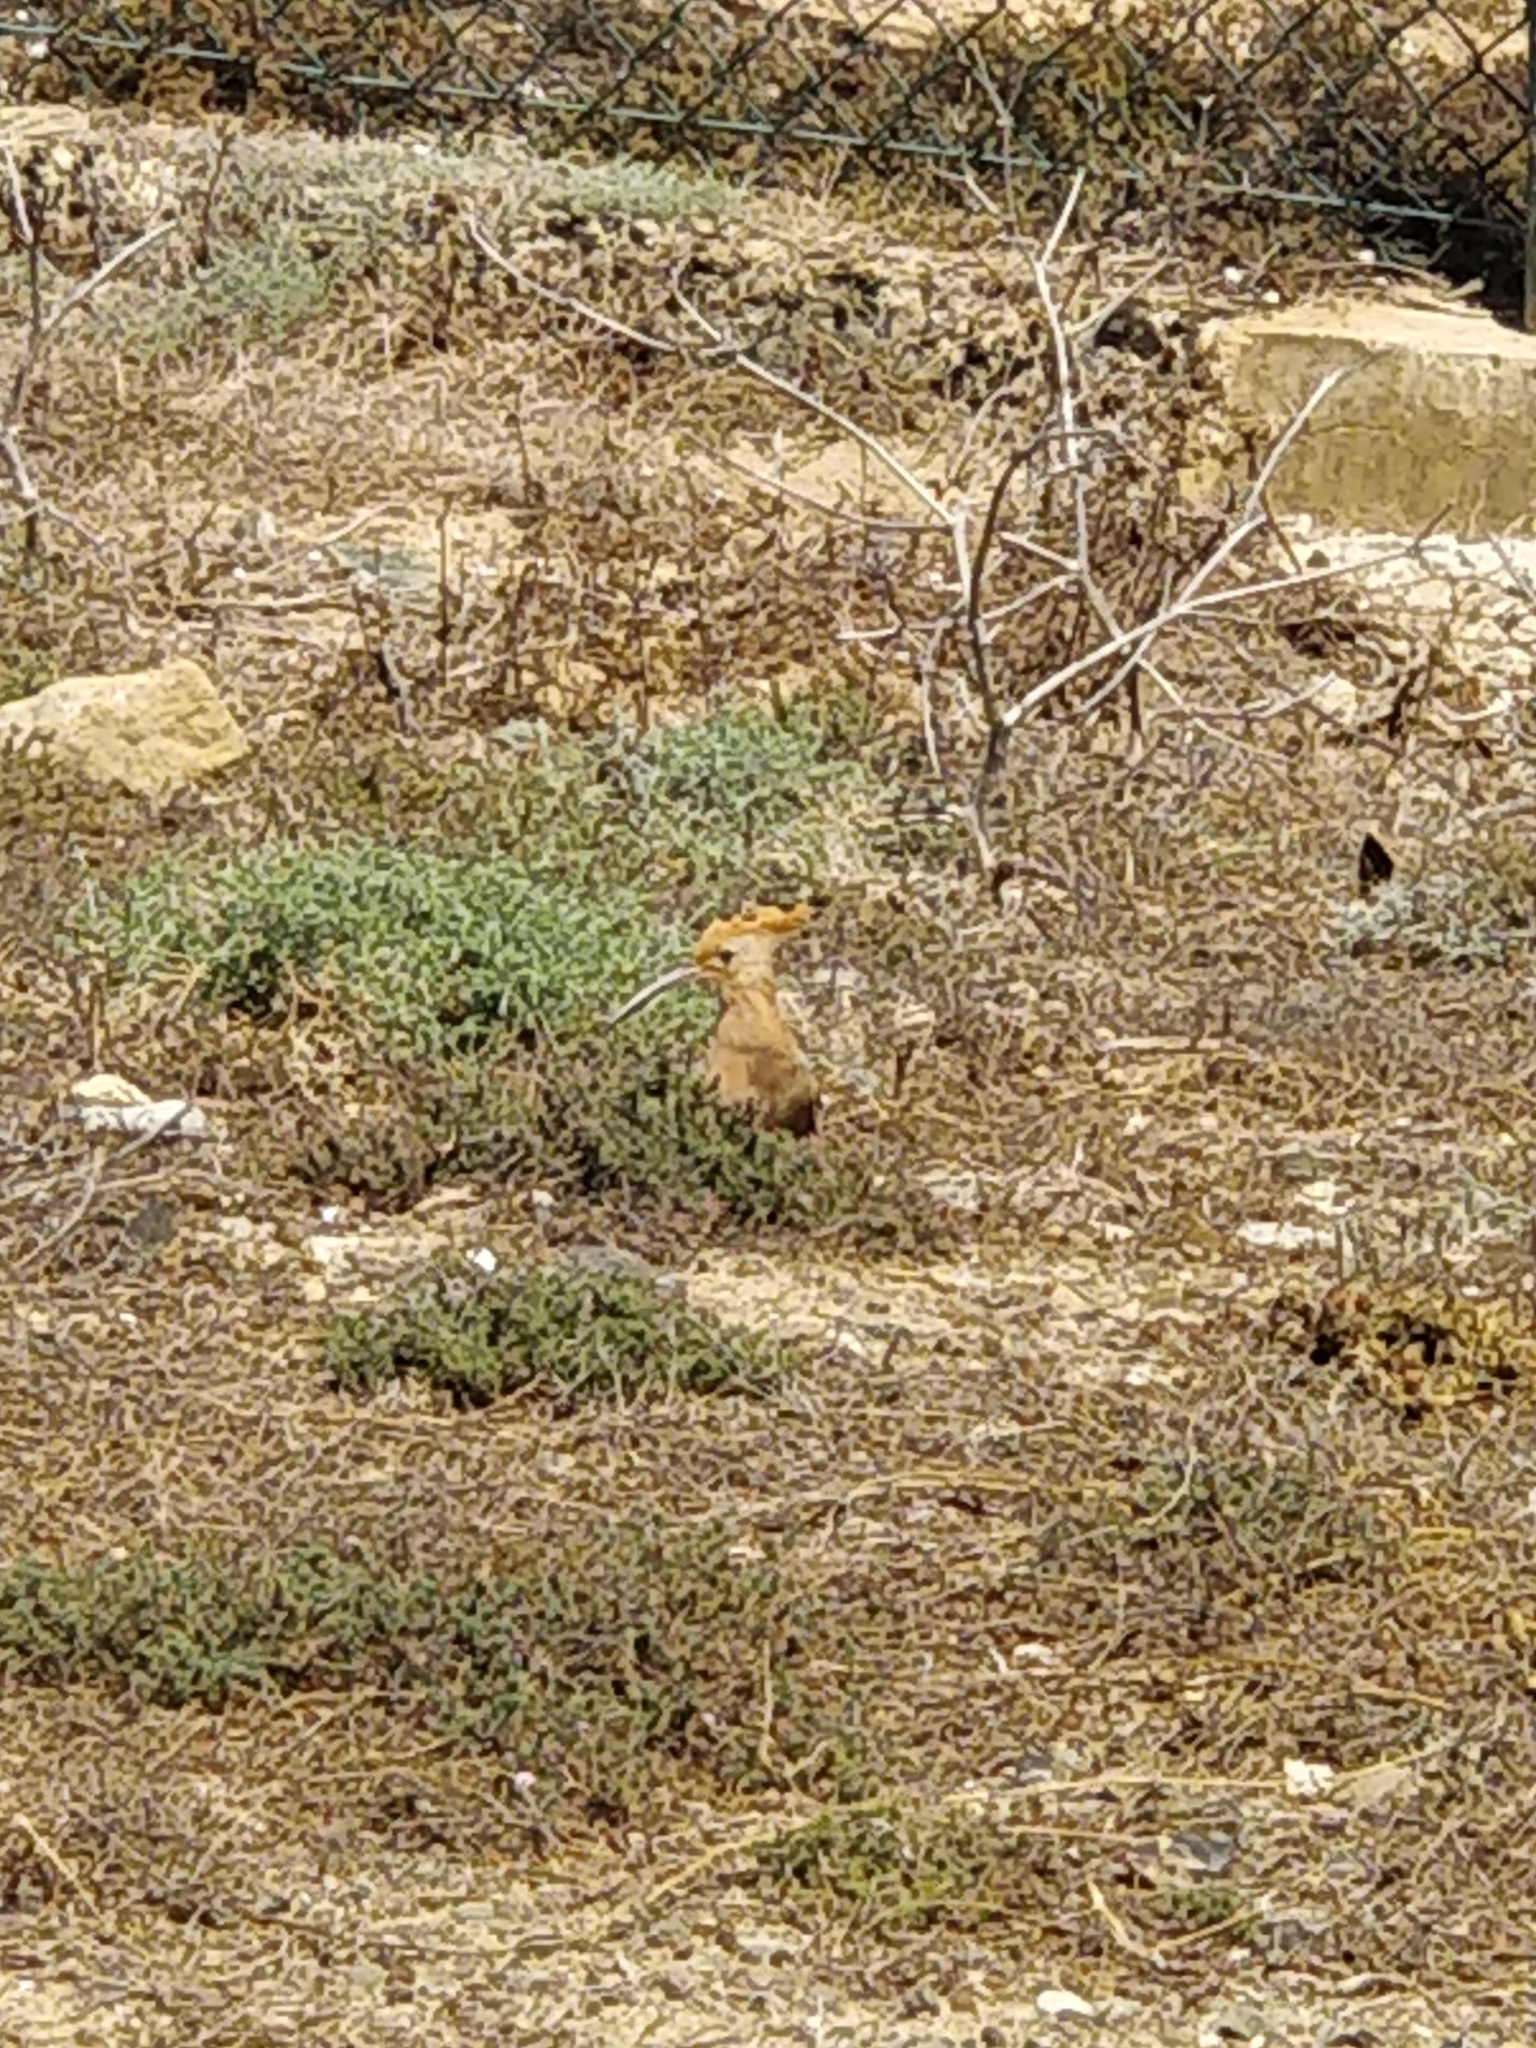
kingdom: Animalia
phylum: Chordata
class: Aves
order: Bucerotiformes
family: Upupidae
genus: Upupa
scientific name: Upupa epops
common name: Eurasian hoopoe
